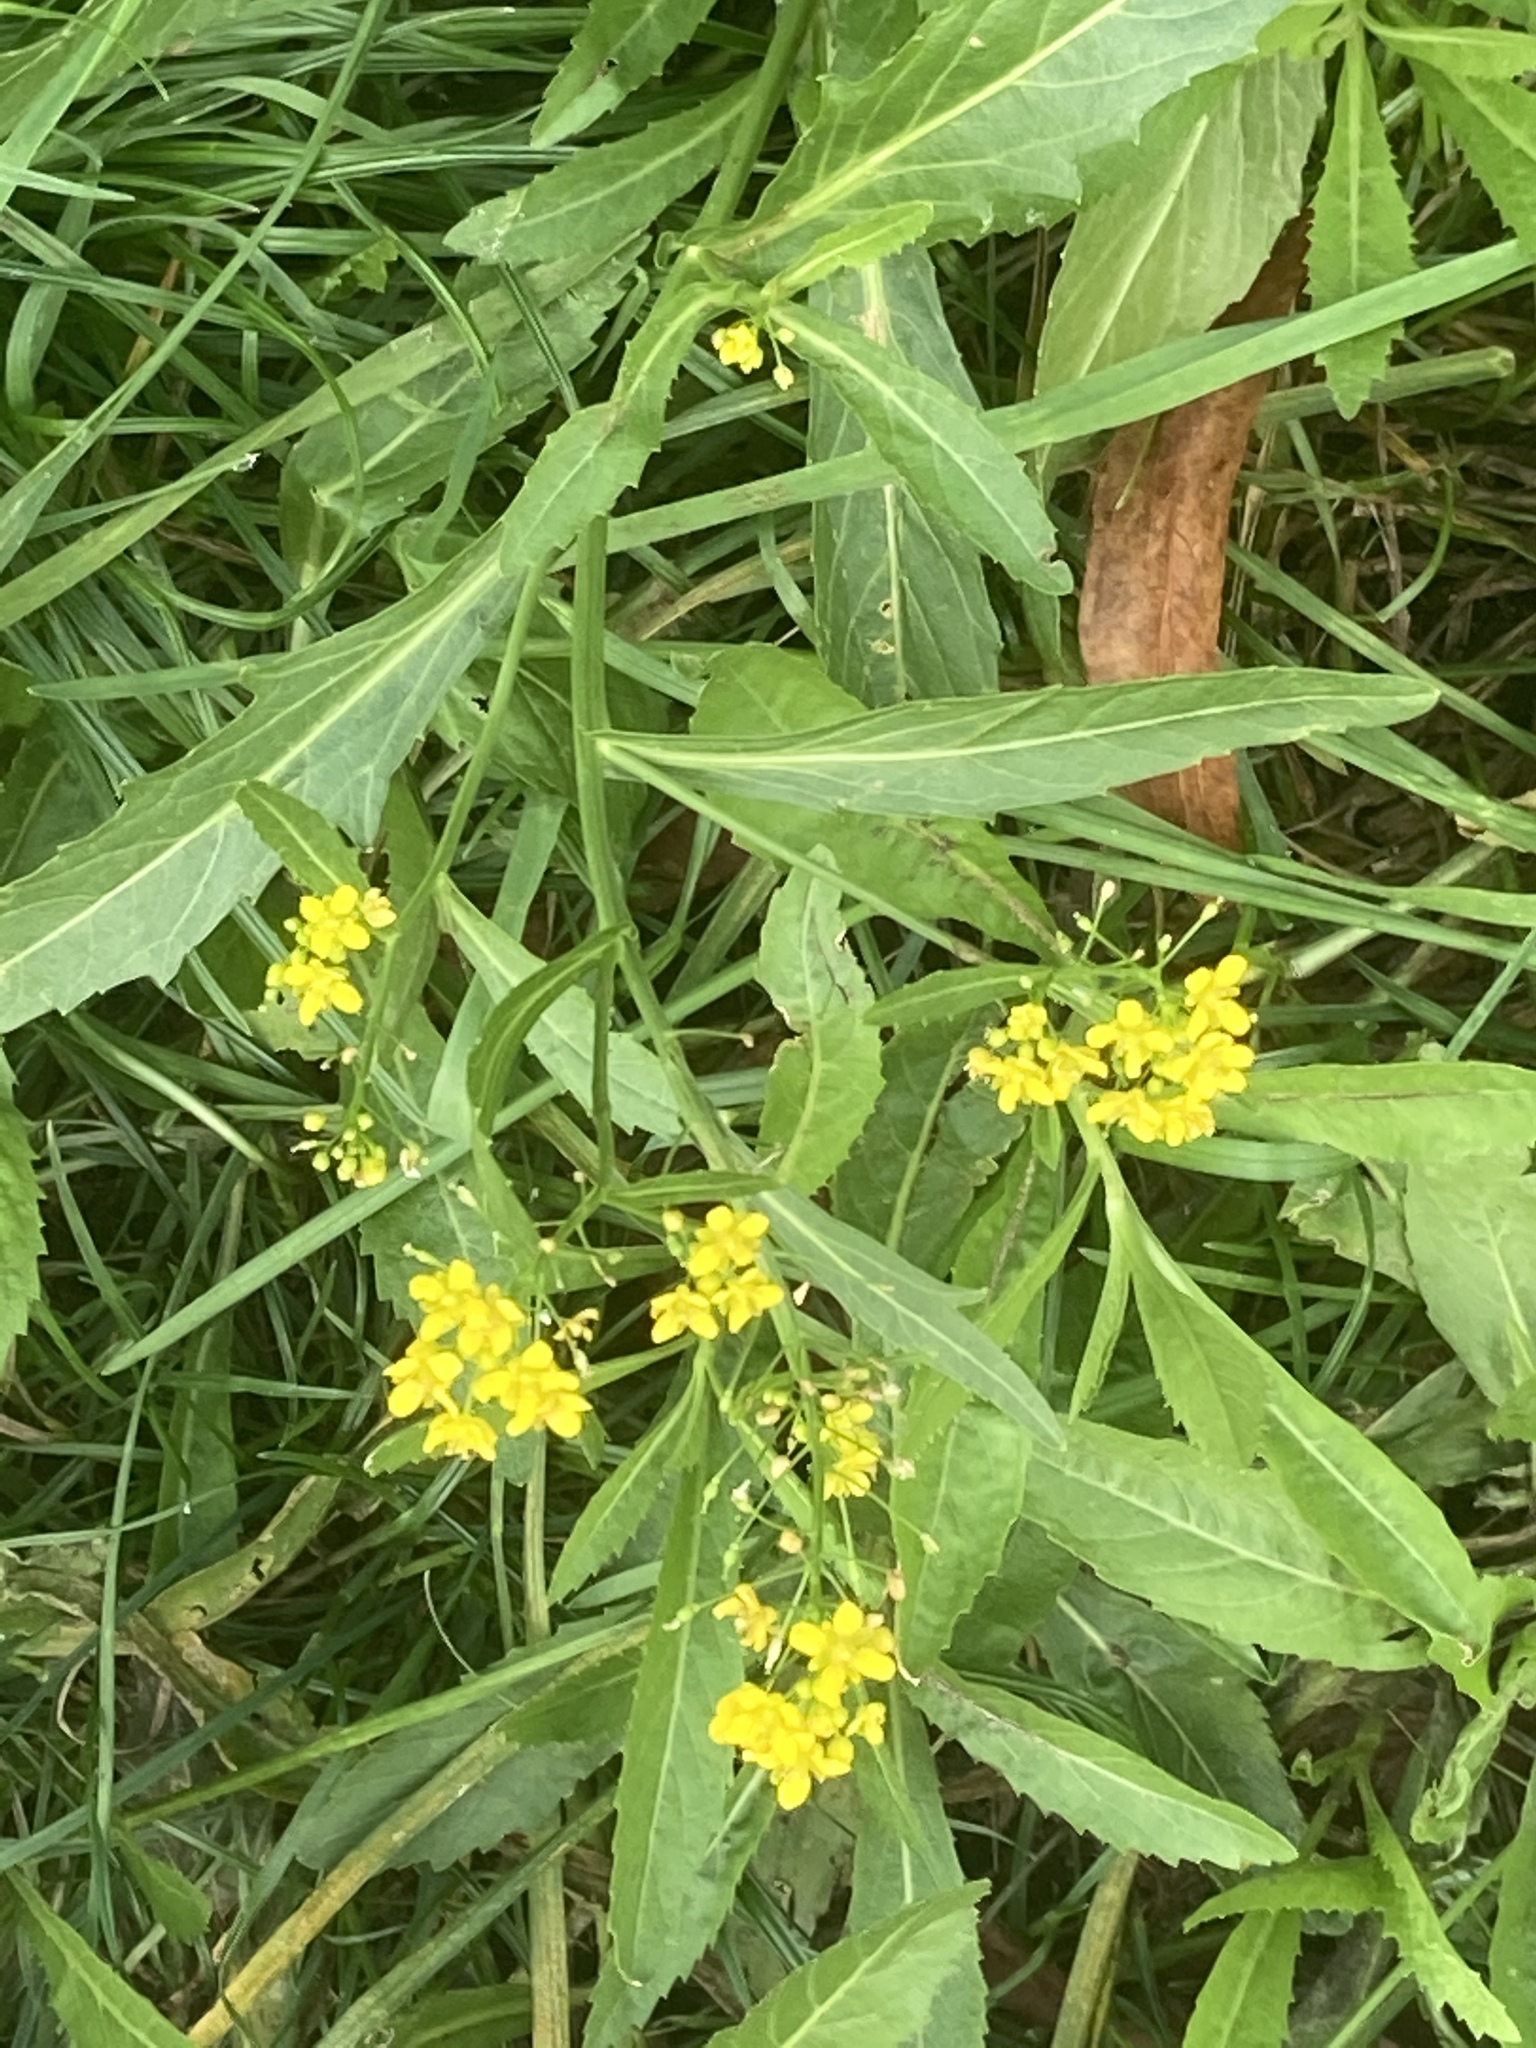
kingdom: Plantae
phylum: Tracheophyta
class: Magnoliopsida
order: Brassicales
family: Brassicaceae
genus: Rorippa
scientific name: Rorippa amphibia
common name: Great yellow-cress
